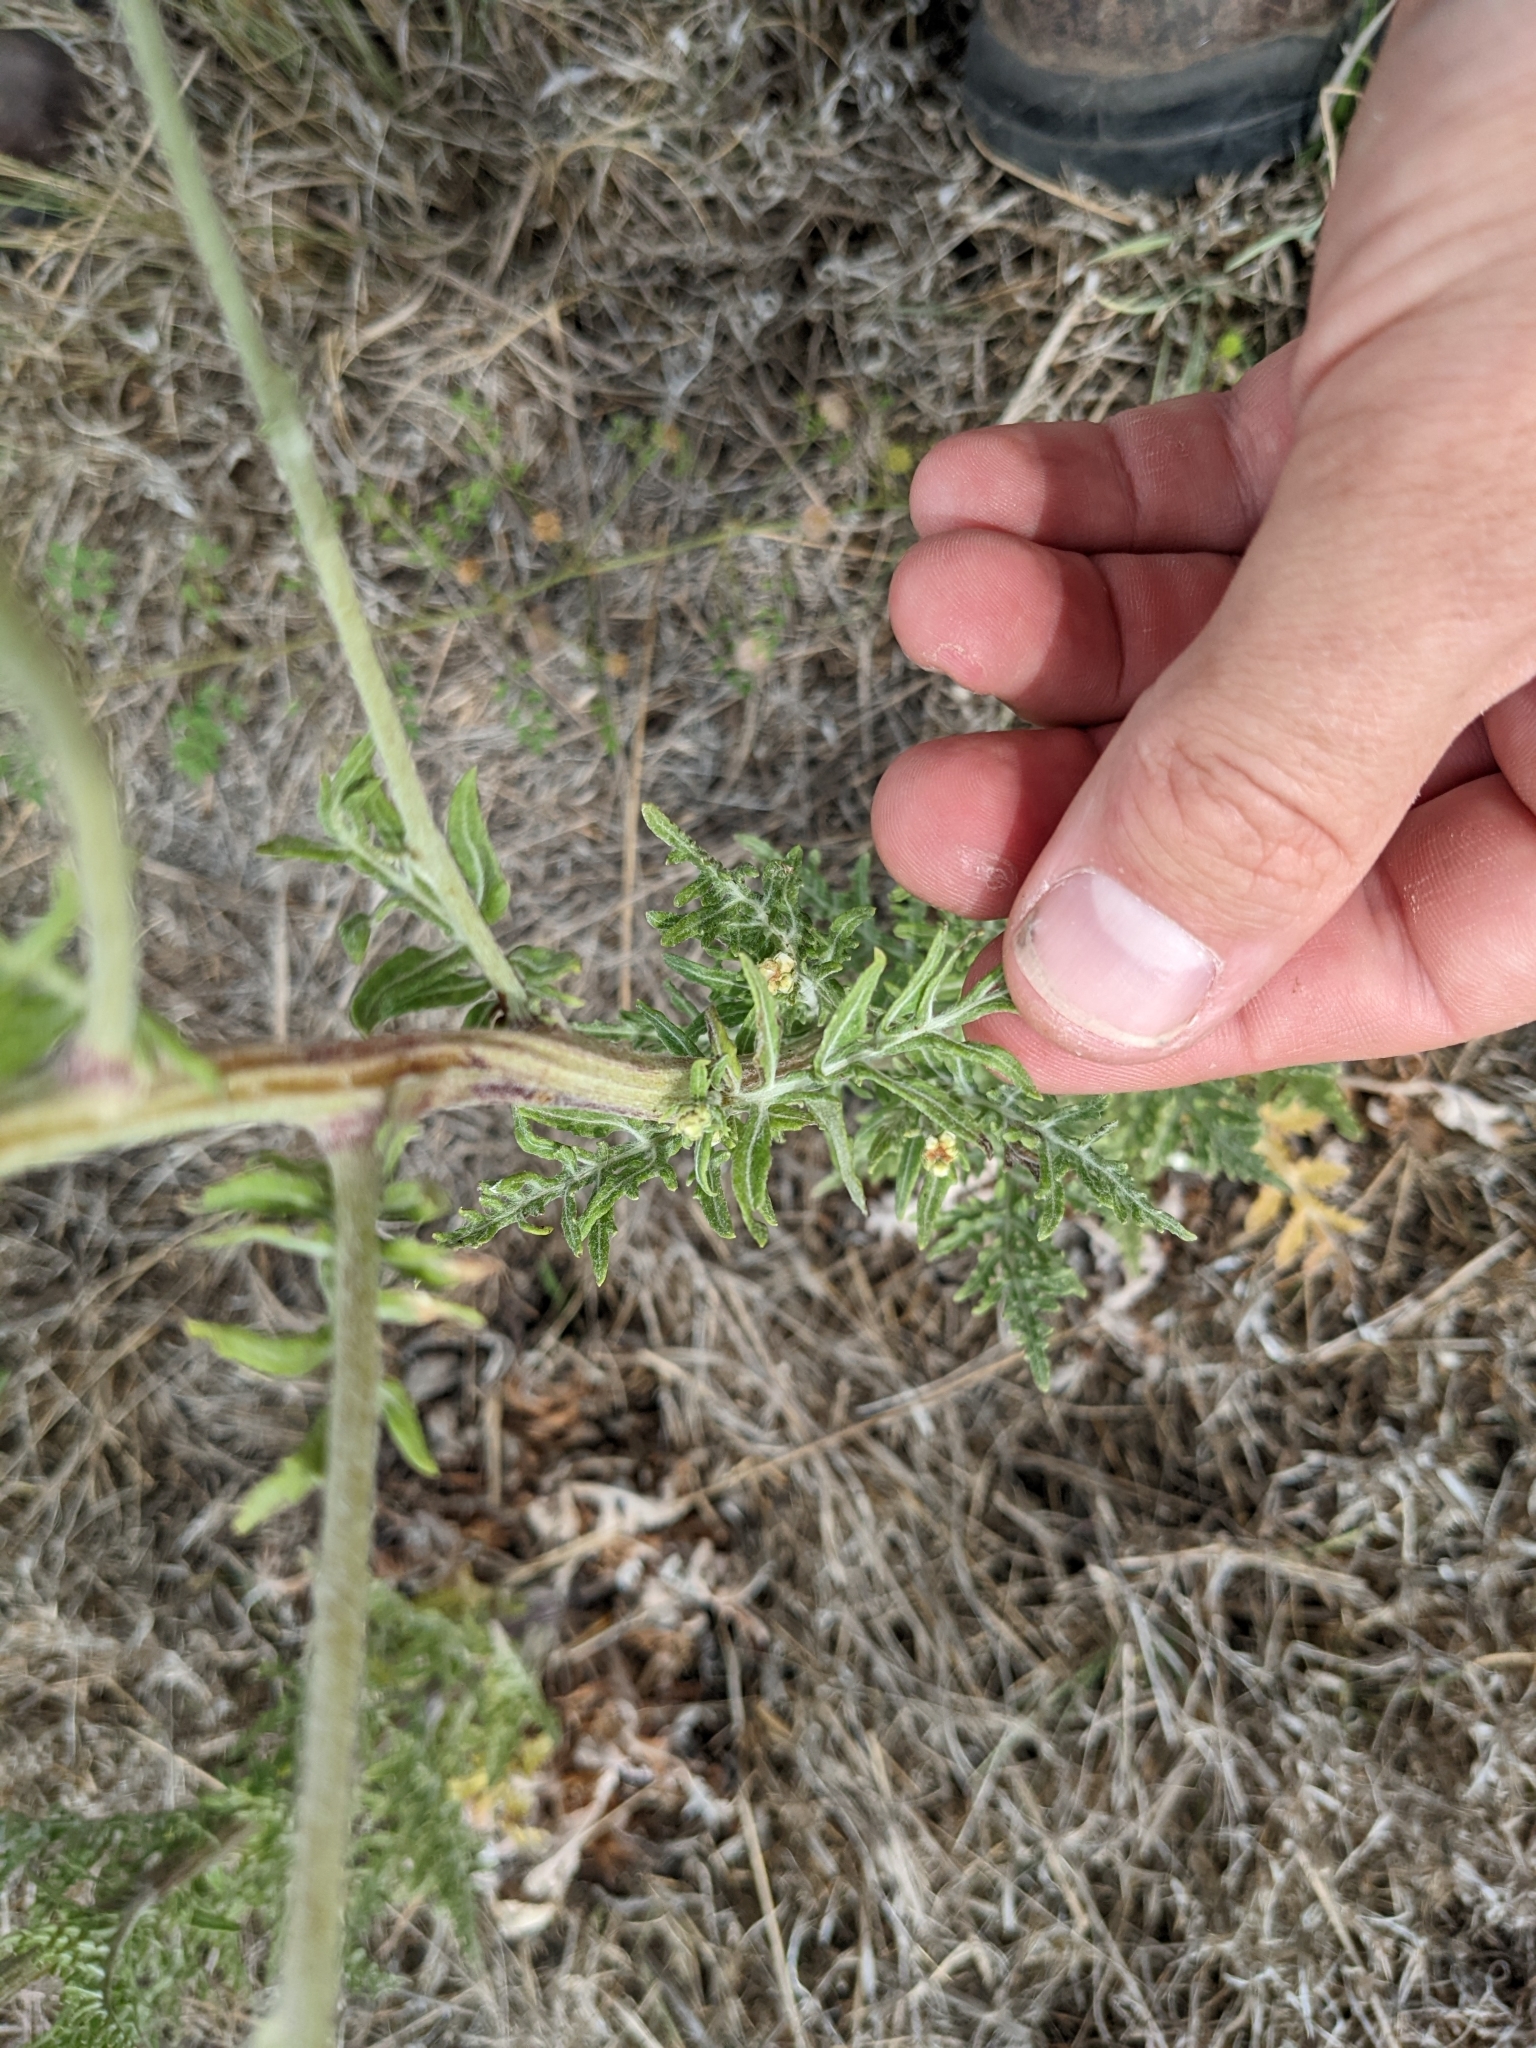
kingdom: Plantae
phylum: Tracheophyta
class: Magnoliopsida
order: Asterales
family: Asteraceae
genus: Hymenopappus
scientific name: Hymenopappus carrizoanus
